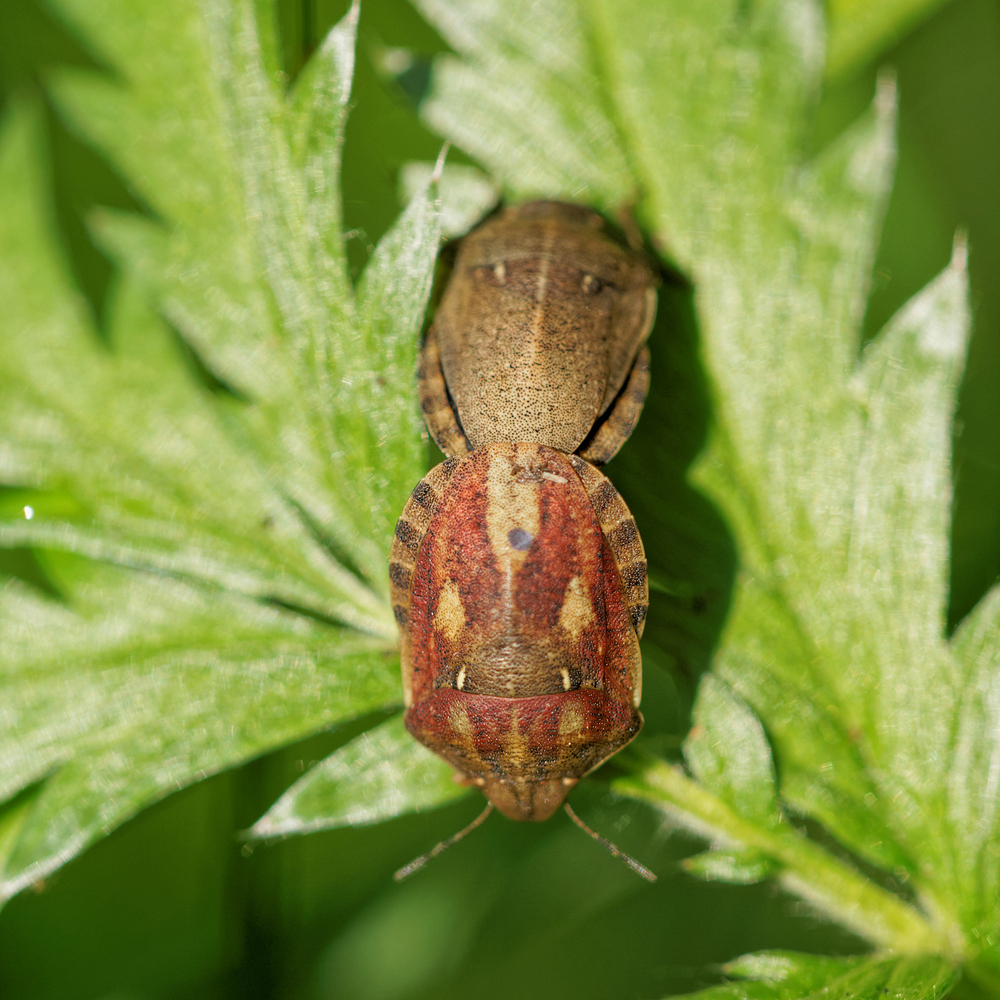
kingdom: Animalia
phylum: Arthropoda
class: Insecta
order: Hemiptera
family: Scutelleridae
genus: Eurygaster
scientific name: Eurygaster testudinaria
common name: Tortoise bug
